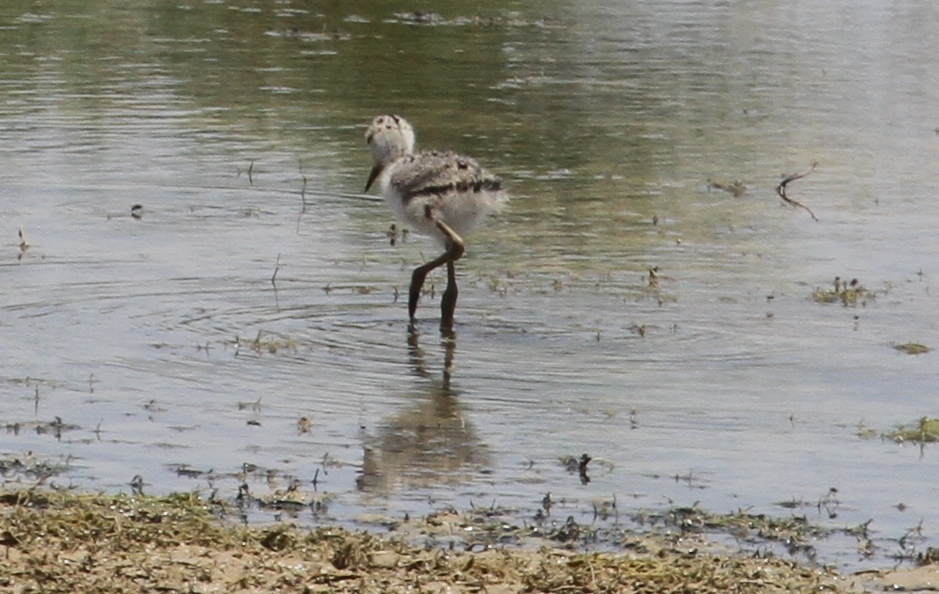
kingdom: Animalia
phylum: Chordata
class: Aves
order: Charadriiformes
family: Recurvirostridae
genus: Himantopus
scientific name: Himantopus himantopus
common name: Black-winged stilt
